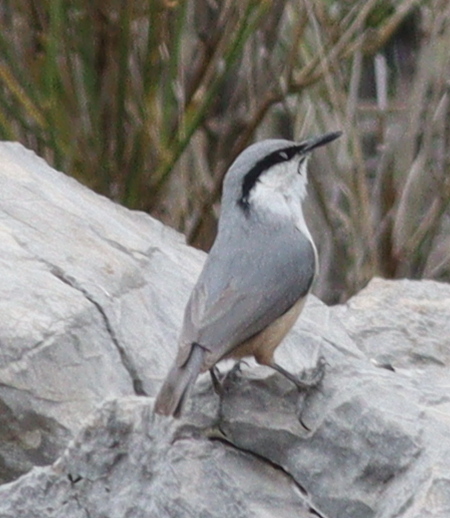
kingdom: Animalia
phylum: Chordata
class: Aves
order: Passeriformes
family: Sittidae
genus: Sitta
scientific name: Sitta neumayer
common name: Western rock nuthatch
